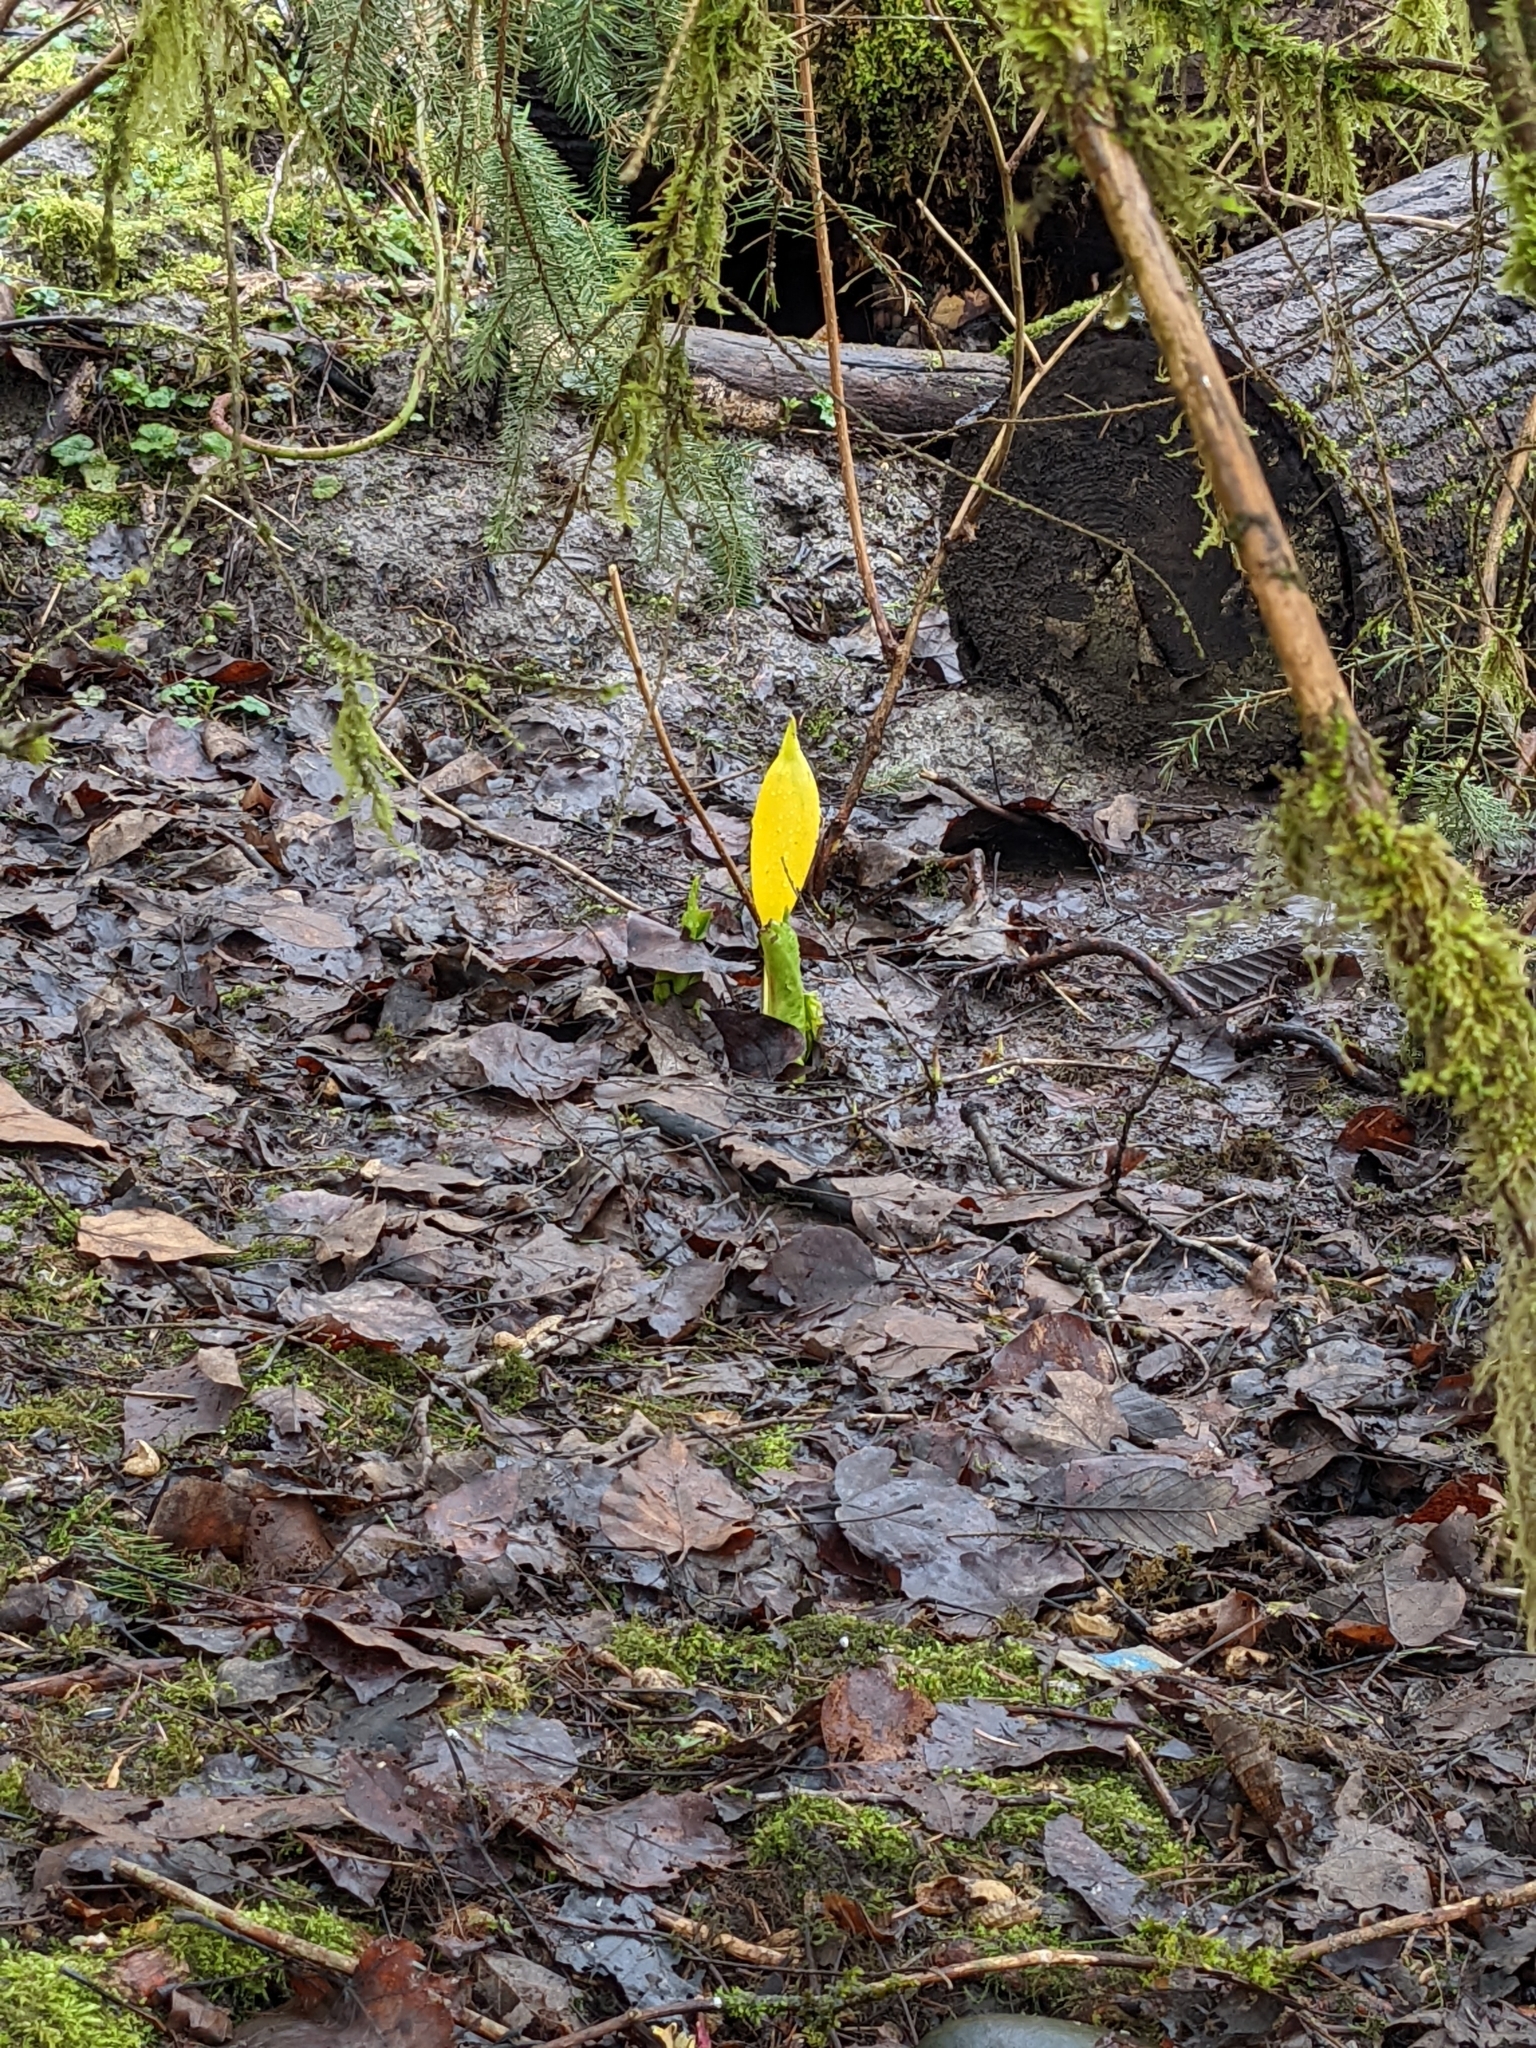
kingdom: Plantae
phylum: Tracheophyta
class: Liliopsida
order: Alismatales
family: Araceae
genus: Lysichiton
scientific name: Lysichiton americanus
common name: American skunk cabbage
